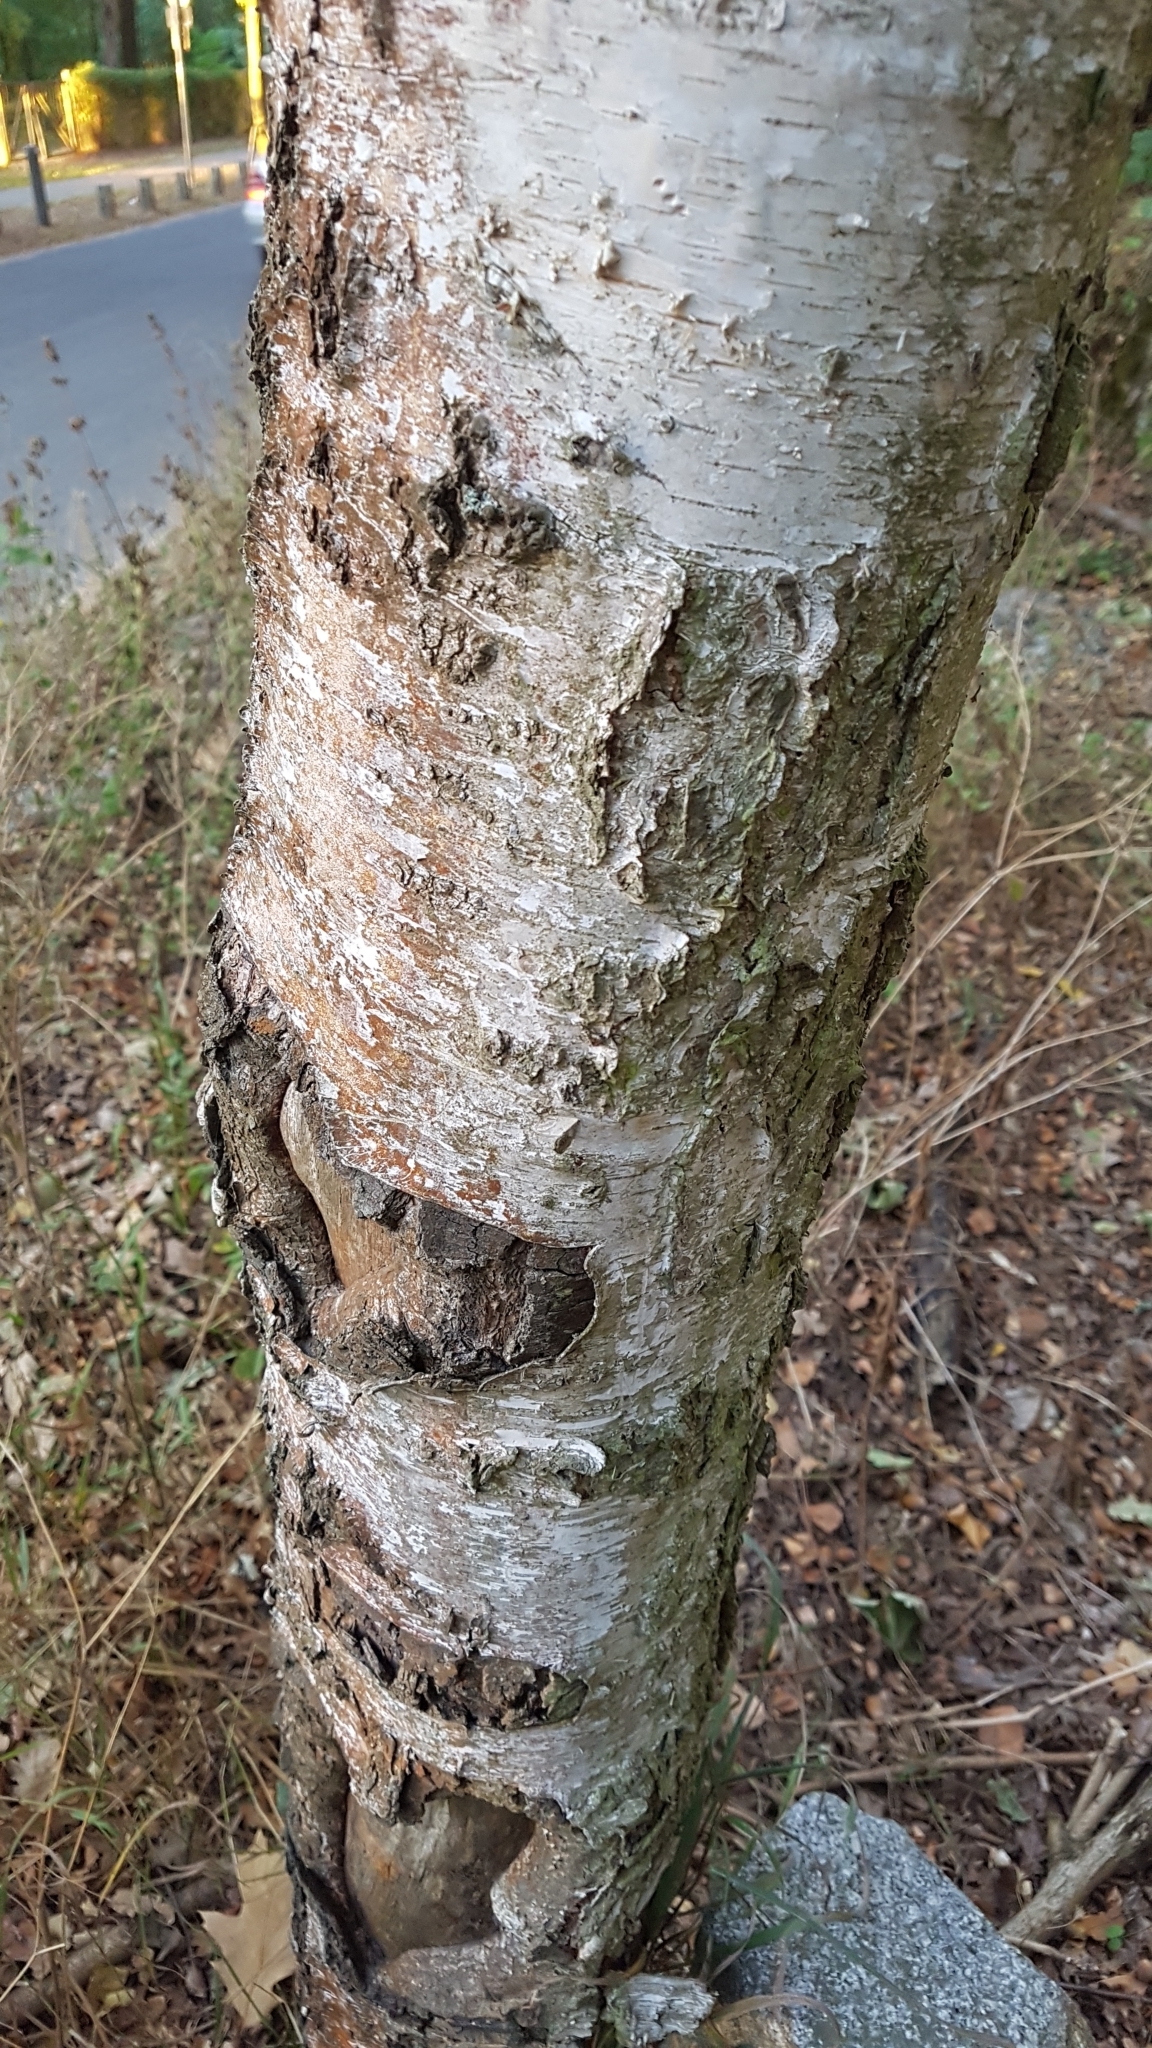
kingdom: Plantae
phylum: Tracheophyta
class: Magnoliopsida
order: Fagales
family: Betulaceae
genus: Betula
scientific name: Betula pendula
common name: Silver birch
